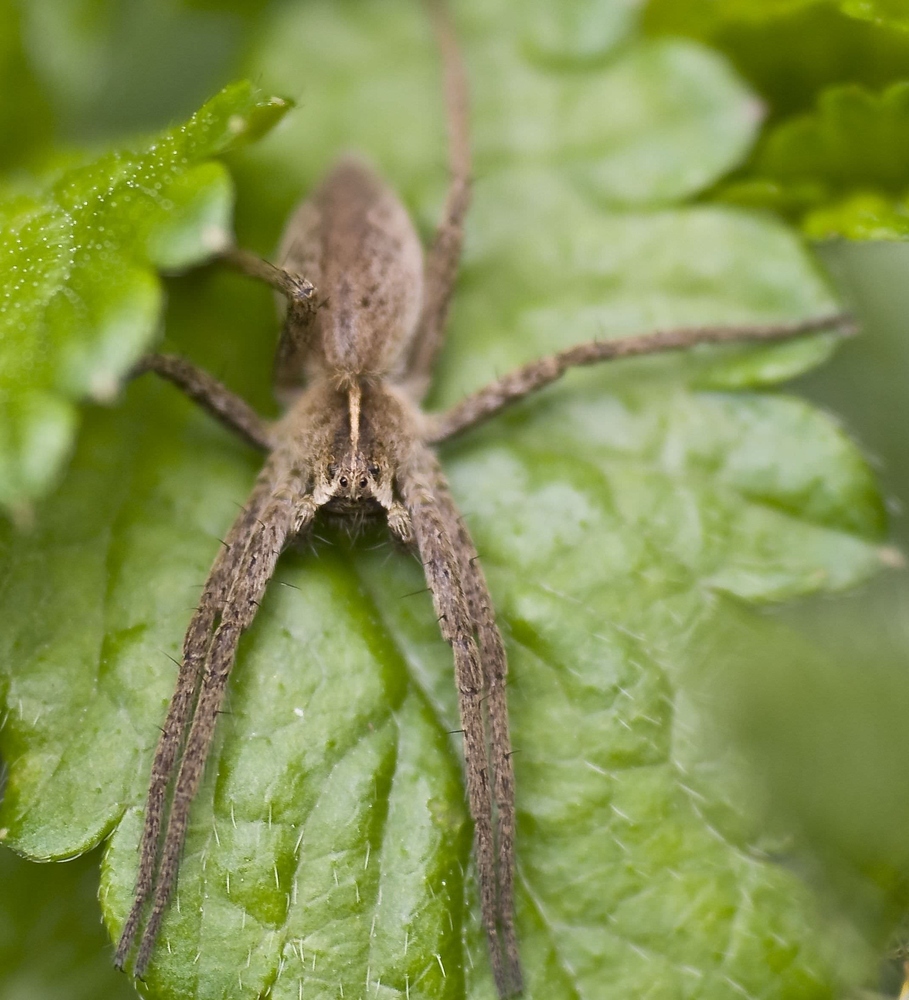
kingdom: Animalia
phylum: Arthropoda
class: Arachnida
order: Araneae
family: Pisauridae
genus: Pisaura
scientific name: Pisaura mirabilis
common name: Tent spider
